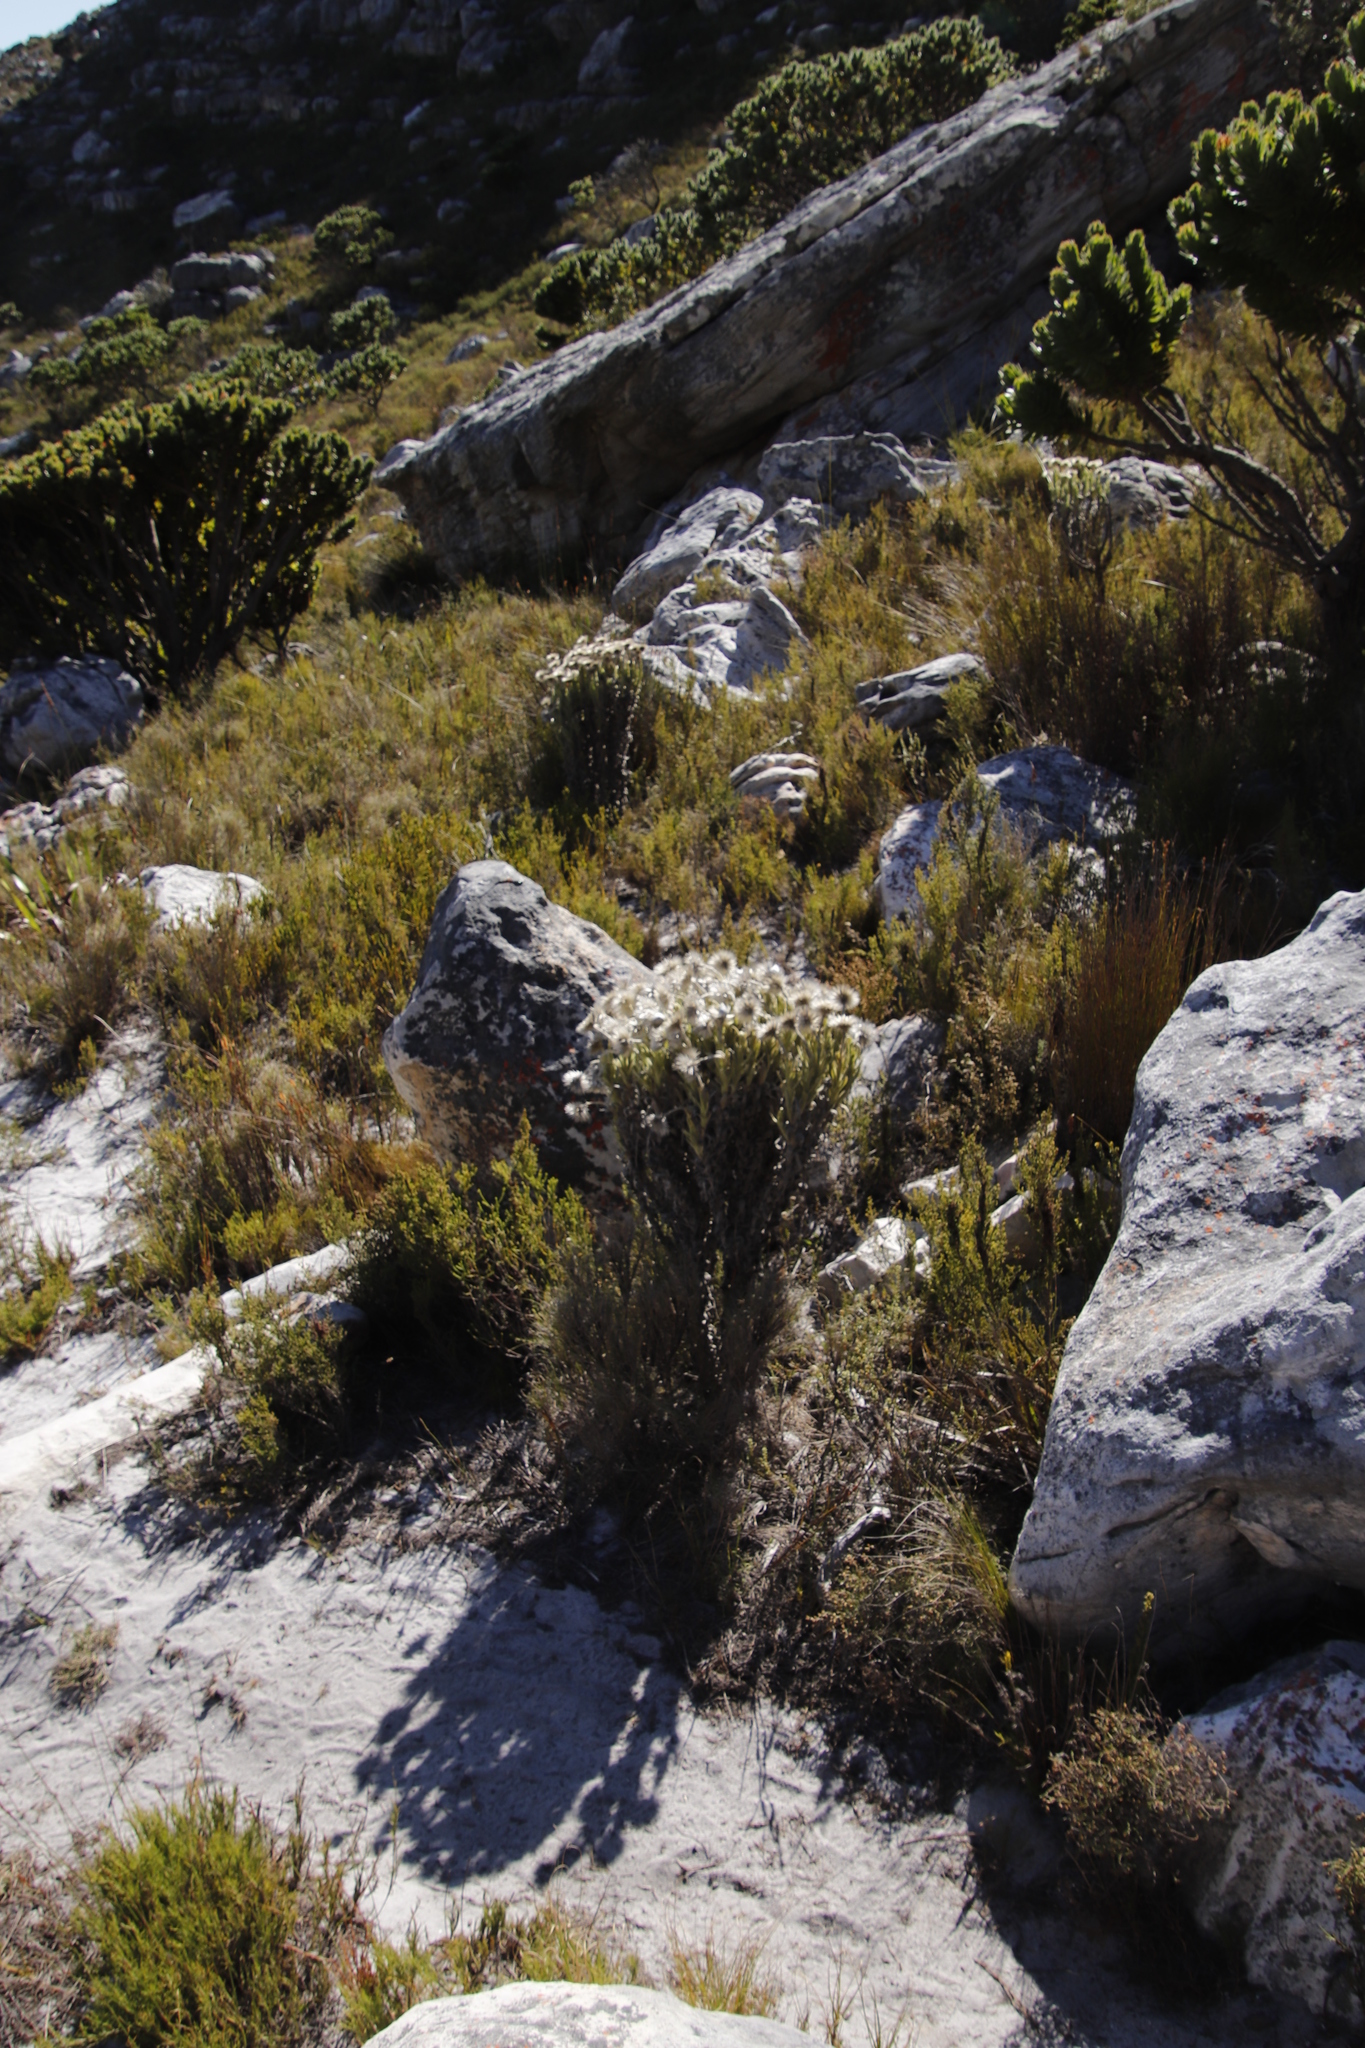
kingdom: Plantae
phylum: Tracheophyta
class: Magnoliopsida
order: Asterales
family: Asteraceae
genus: Syncarpha
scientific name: Syncarpha vestita
